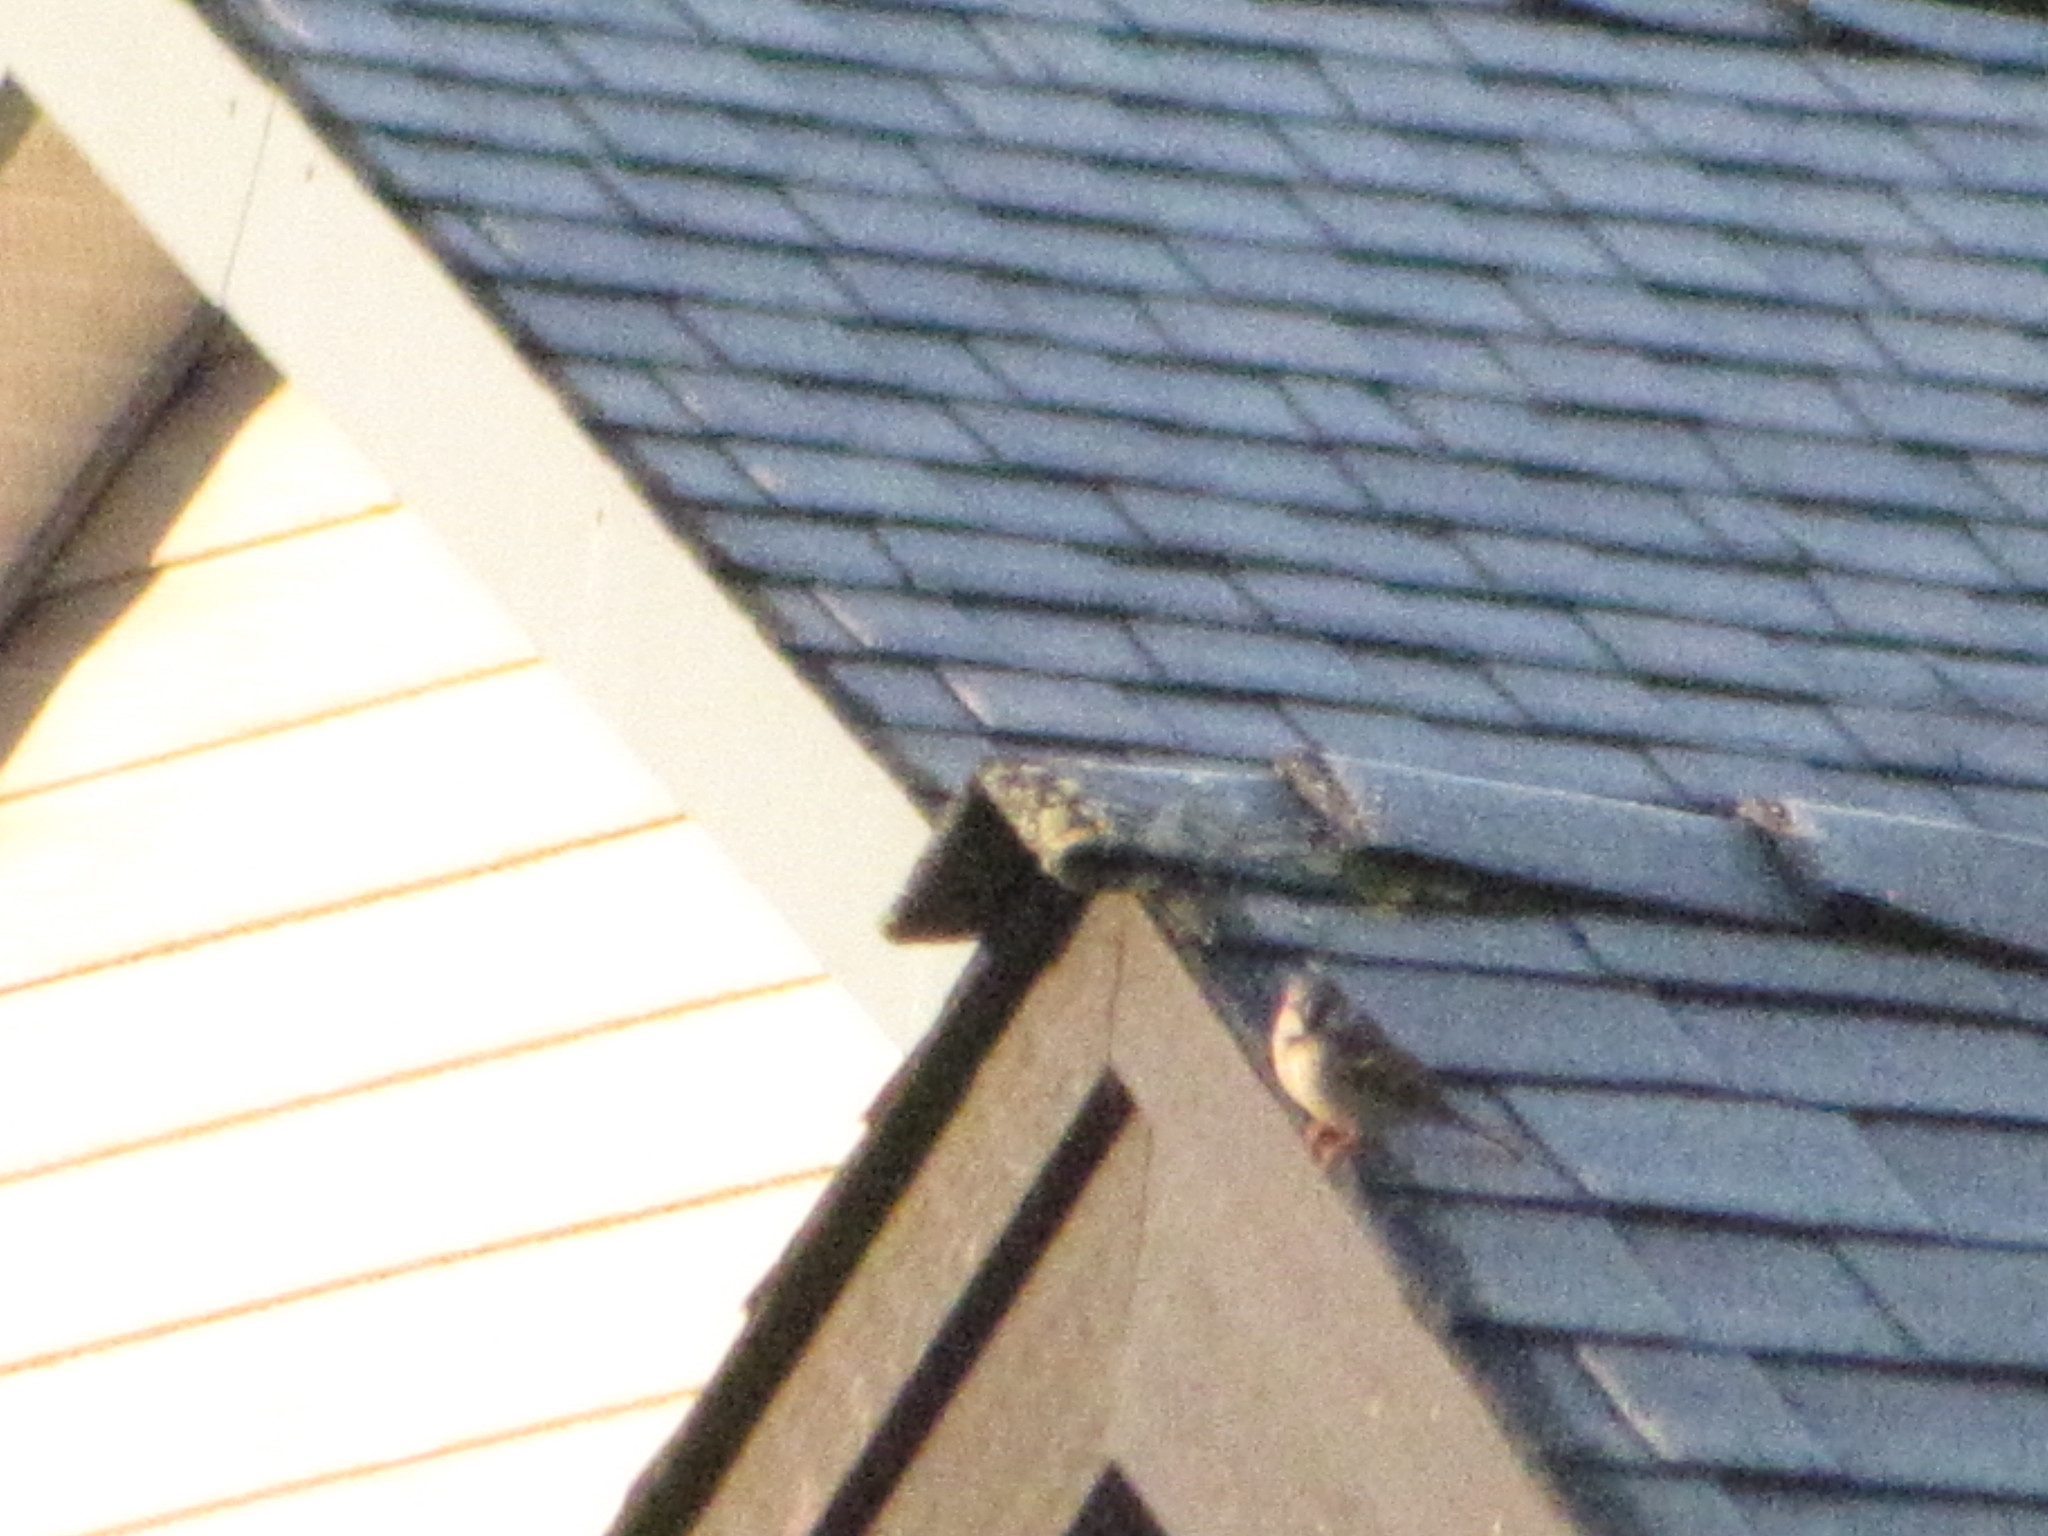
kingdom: Animalia
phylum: Chordata
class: Aves
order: Passeriformes
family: Passeridae
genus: Passer
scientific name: Passer domesticus
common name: House sparrow
